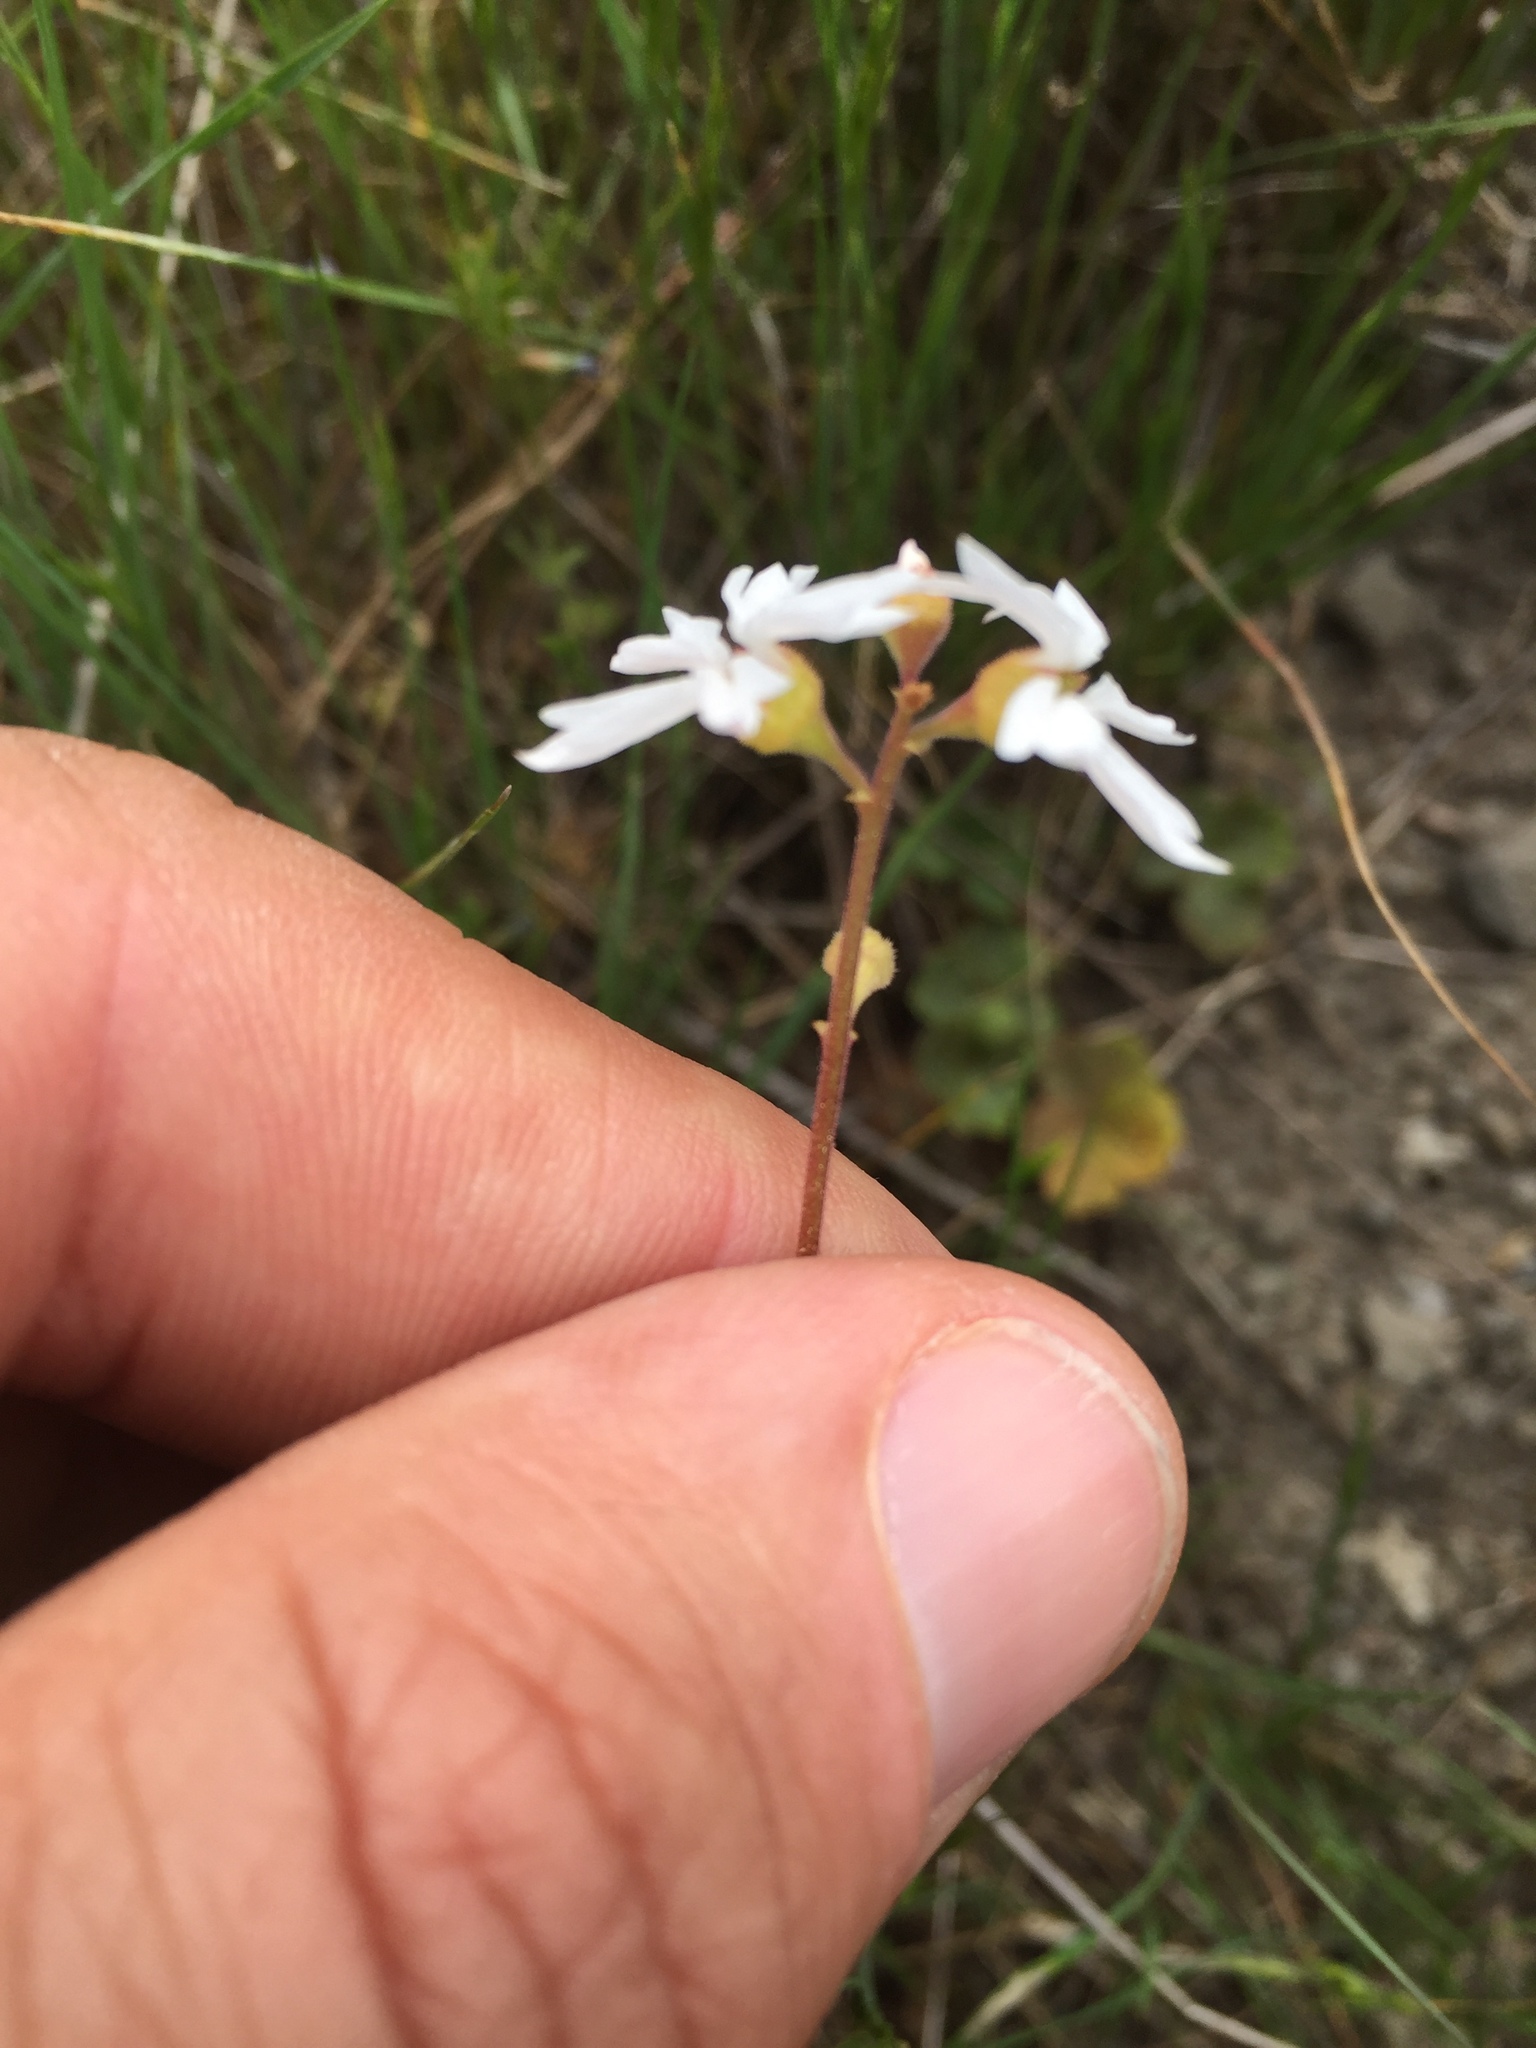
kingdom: Plantae
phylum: Tracheophyta
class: Magnoliopsida
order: Saxifragales
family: Saxifragaceae
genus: Lithophragma
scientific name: Lithophragma affine
